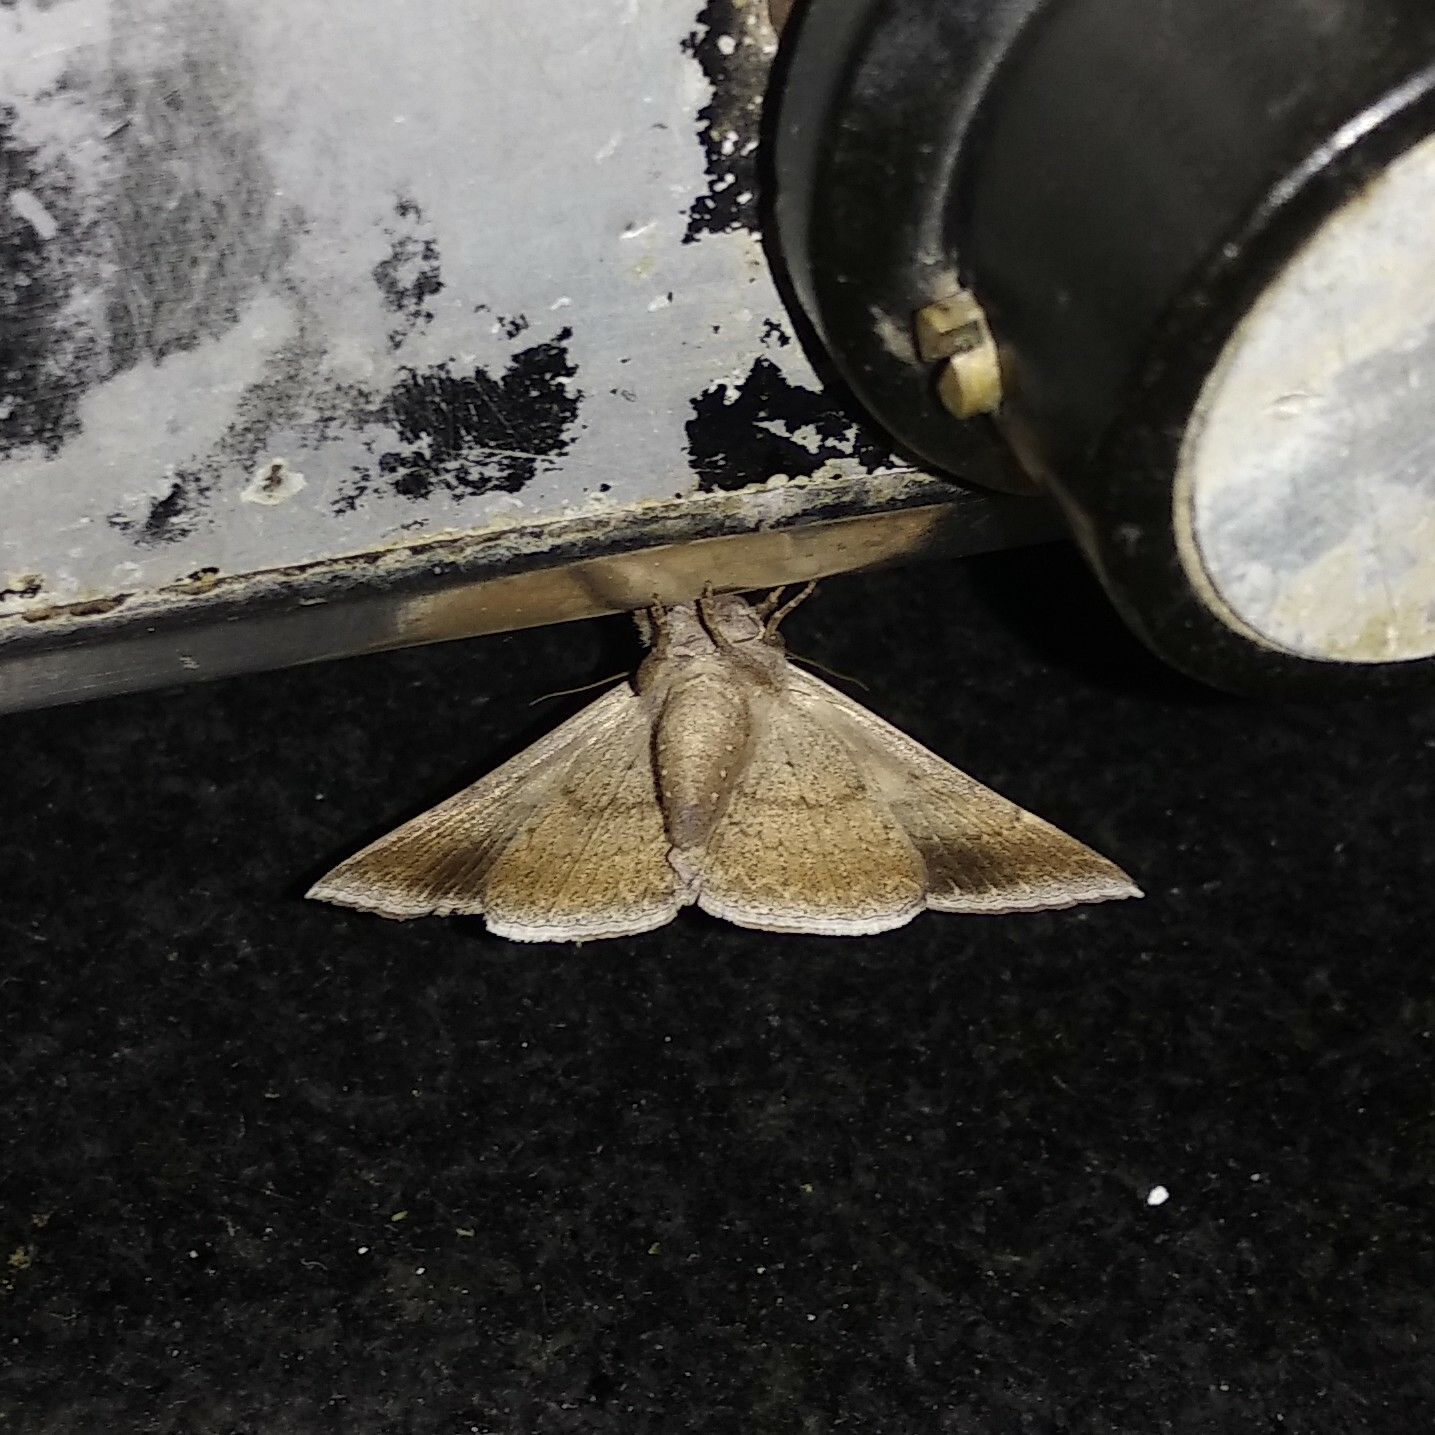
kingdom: Animalia
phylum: Arthropoda
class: Insecta
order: Lepidoptera
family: Erebidae
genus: Dysgonia
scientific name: Dysgonia torrida
